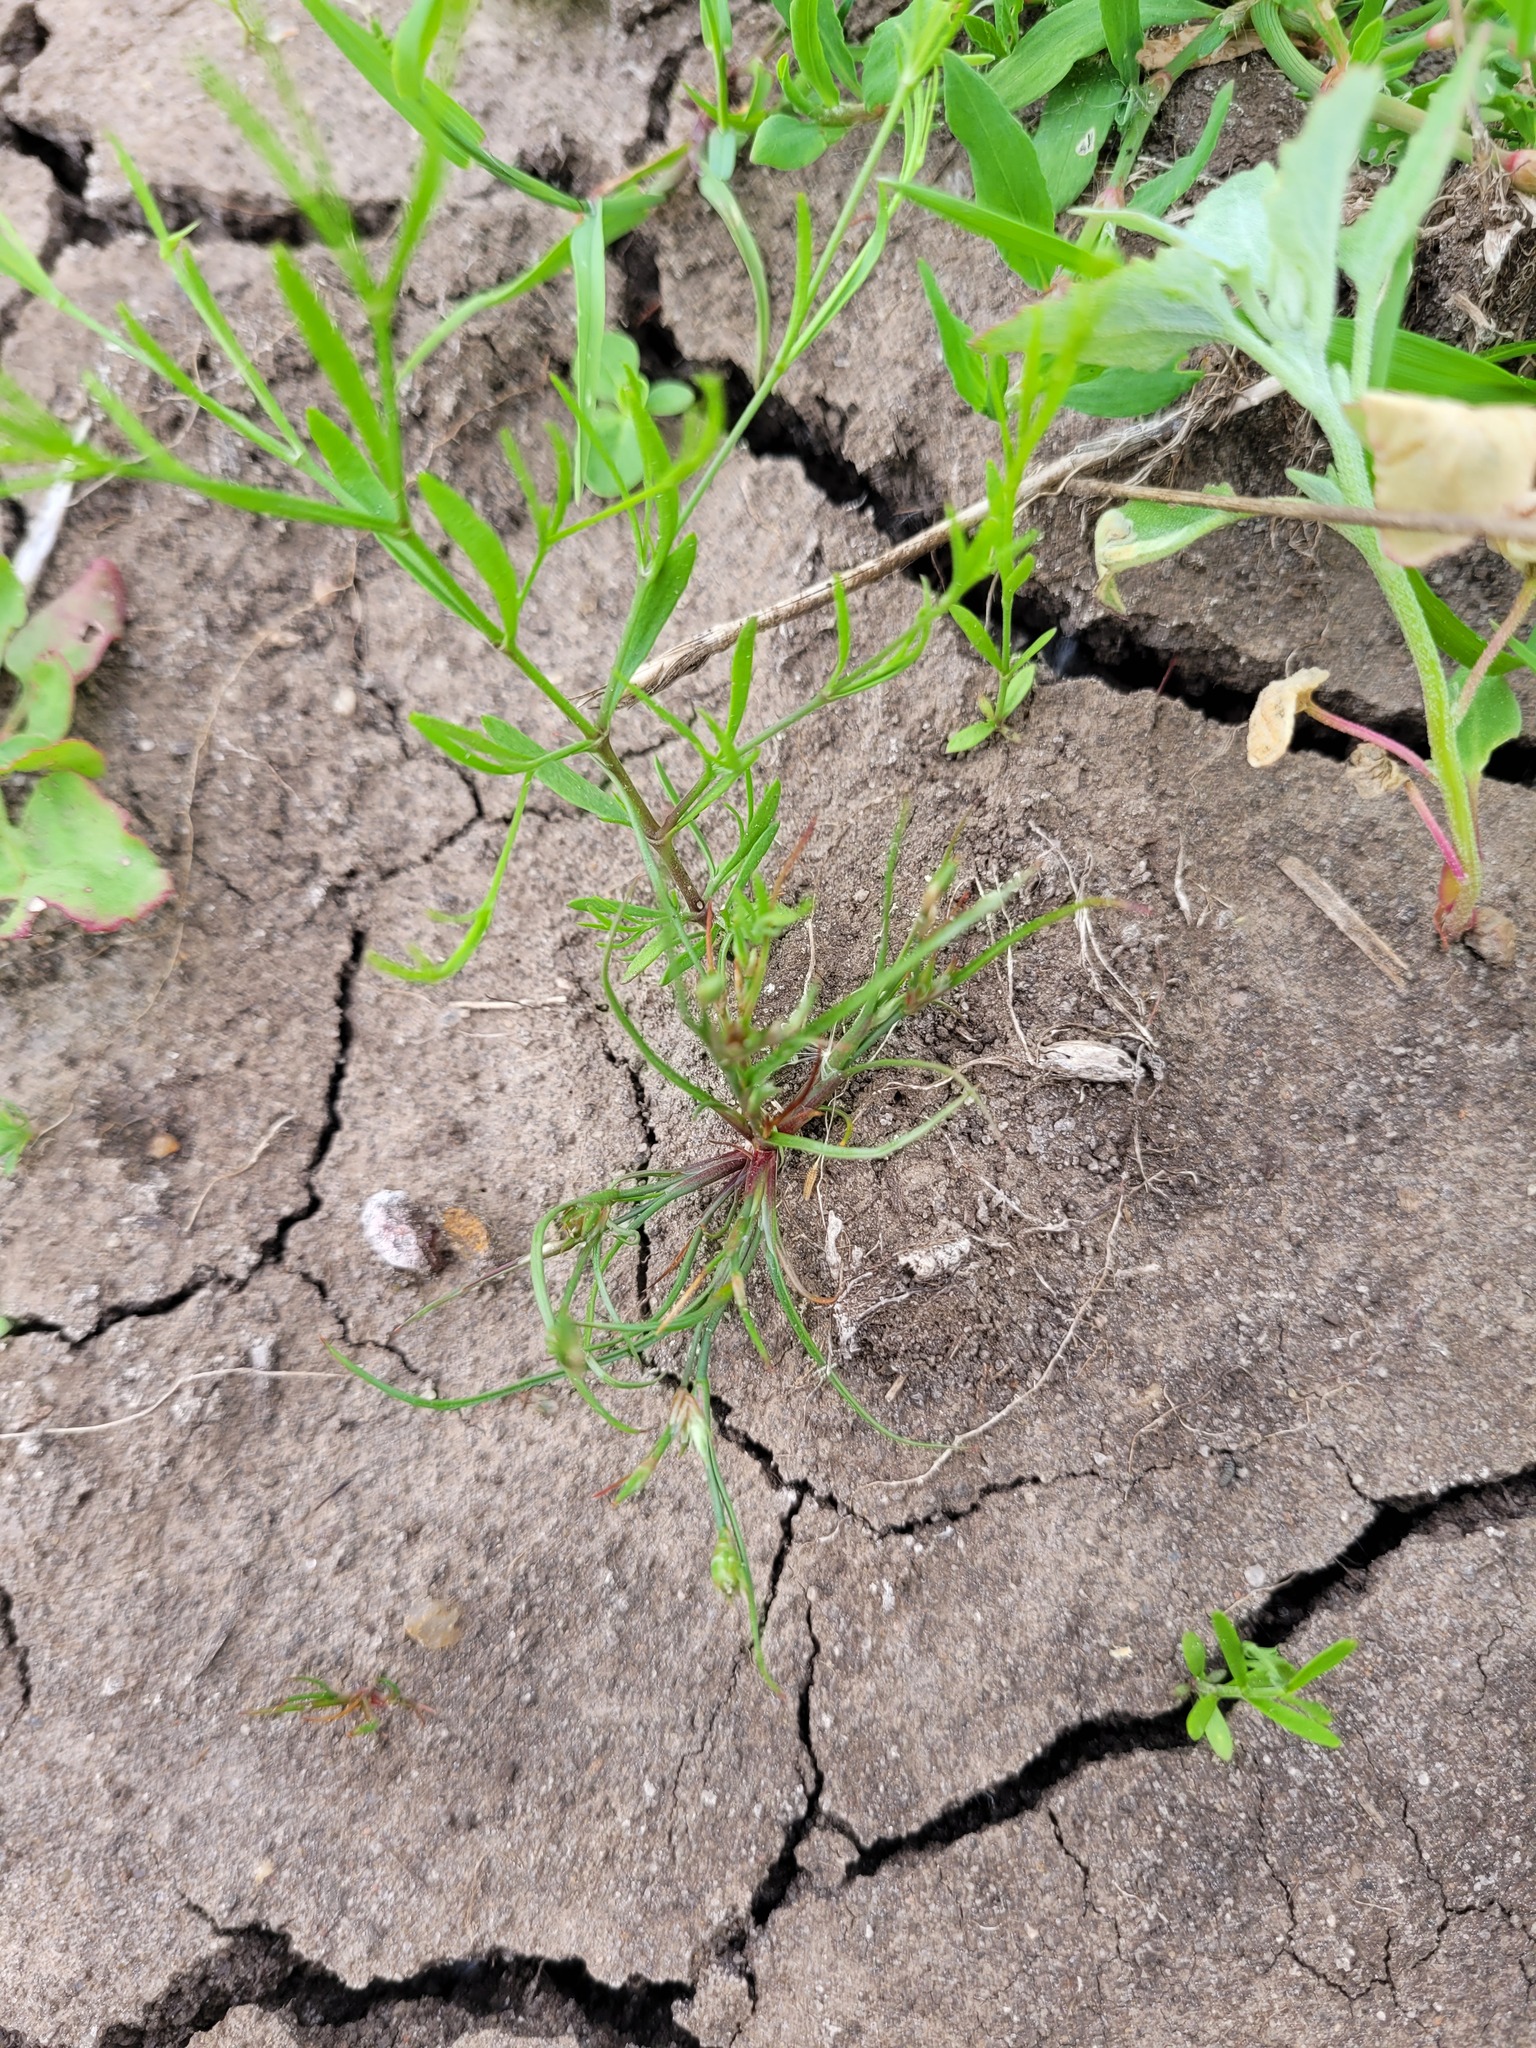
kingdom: Plantae
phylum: Tracheophyta
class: Liliopsida
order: Poales
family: Juncaceae
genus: Juncus
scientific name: Juncus bufonius
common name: Toad rush
